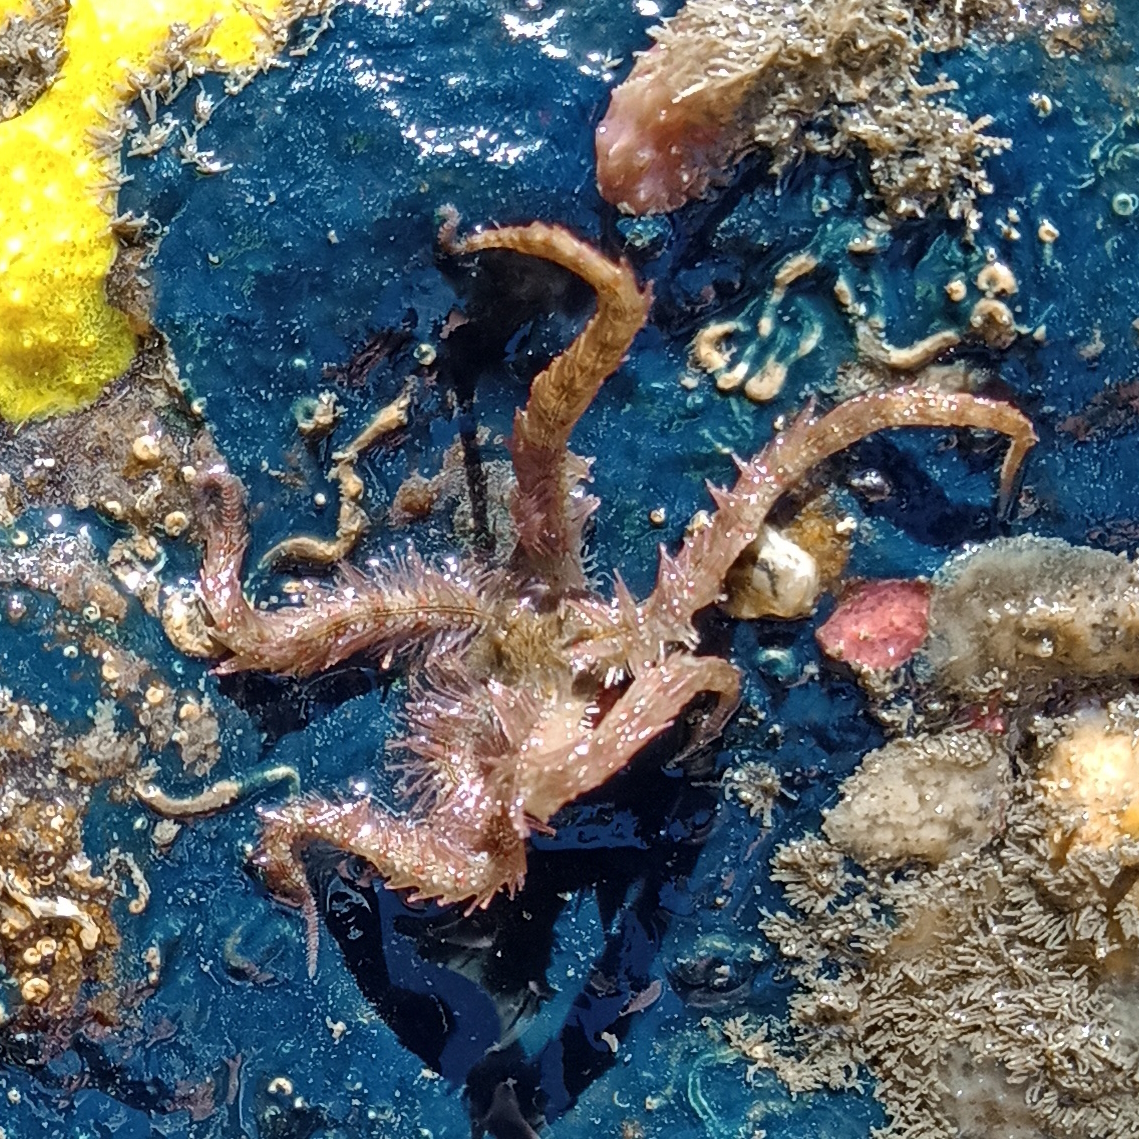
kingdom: Animalia
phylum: Echinodermata
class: Ophiuroidea
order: Amphilepidida
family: Ophiotrichidae
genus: Ophiothrix
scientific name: Ophiothrix angulata
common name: Angular brittle star
